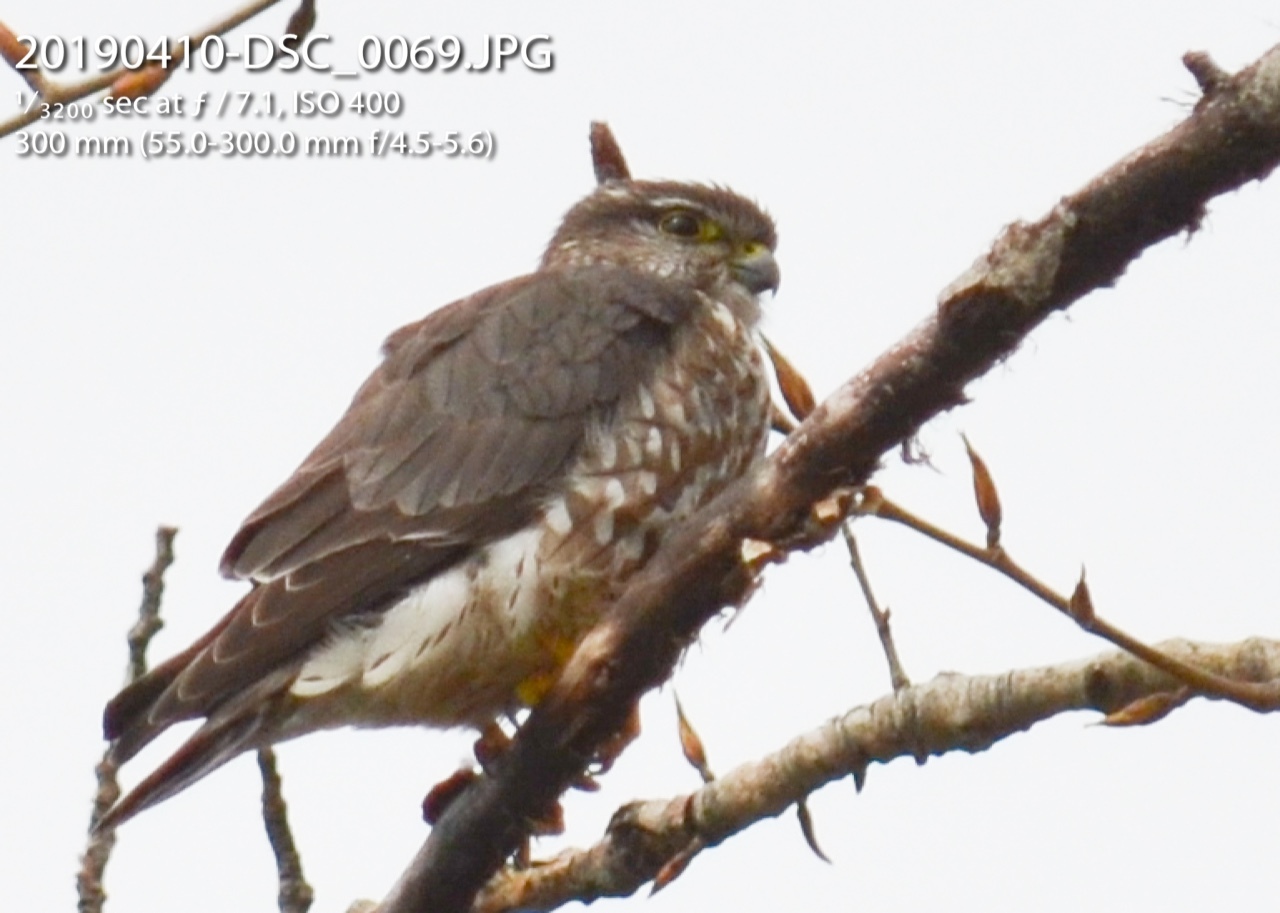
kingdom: Animalia
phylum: Chordata
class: Aves
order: Falconiformes
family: Falconidae
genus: Falco
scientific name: Falco columbarius
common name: Merlin
